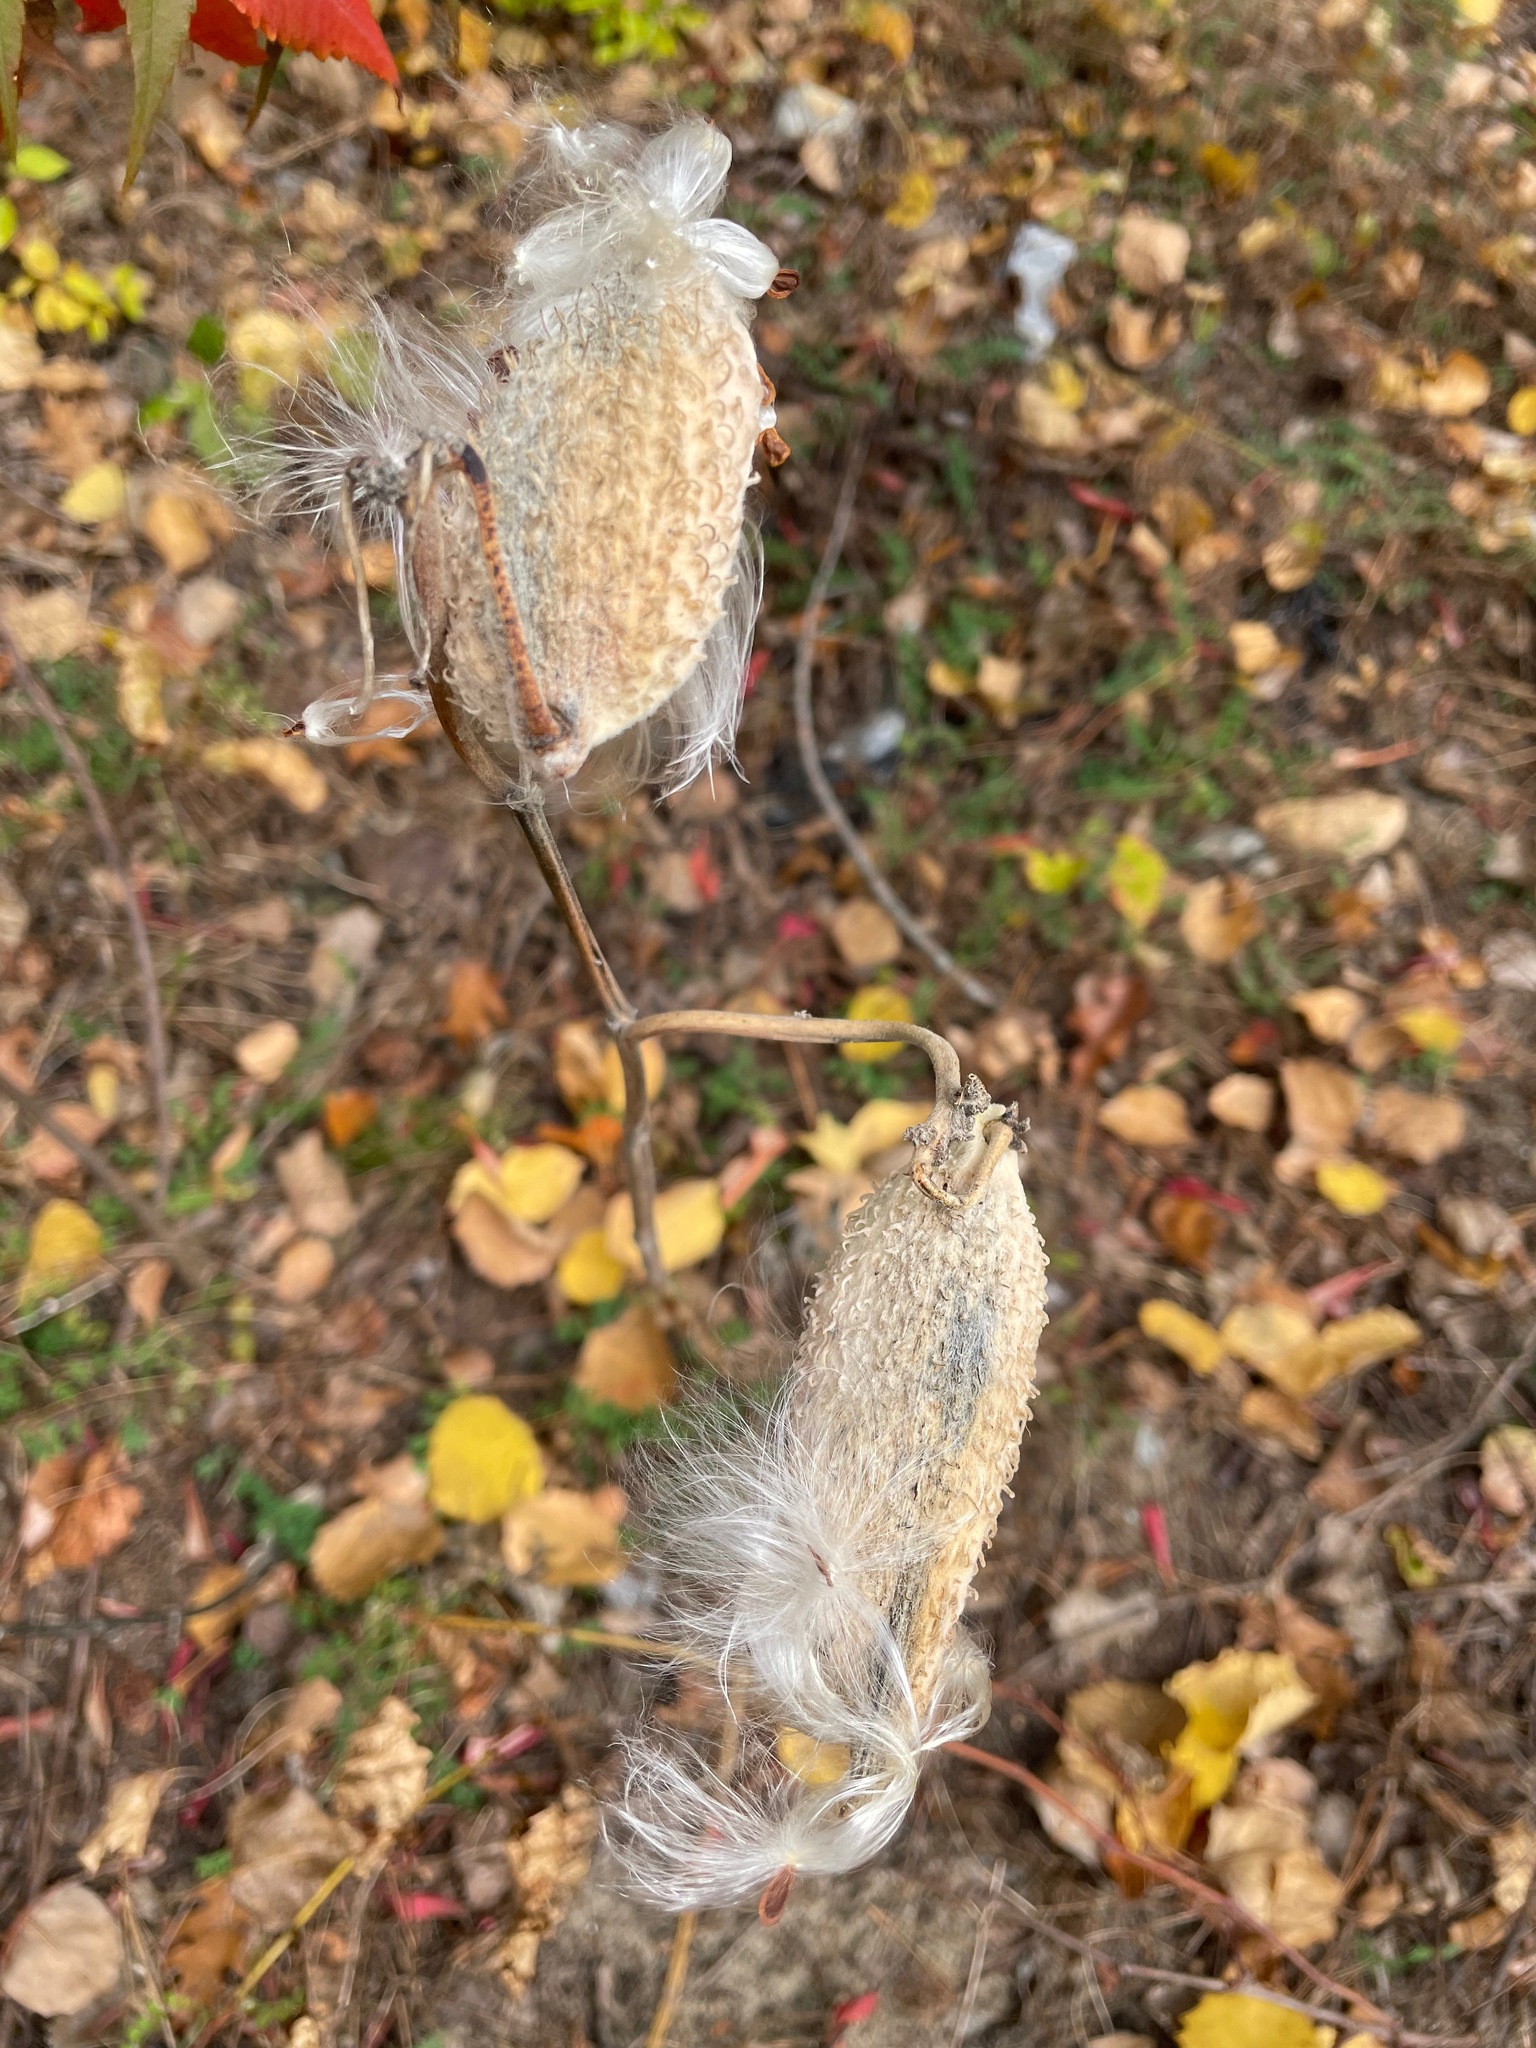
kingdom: Plantae
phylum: Tracheophyta
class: Magnoliopsida
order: Gentianales
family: Apocynaceae
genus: Asclepias
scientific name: Asclepias syriaca
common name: Common milkweed
